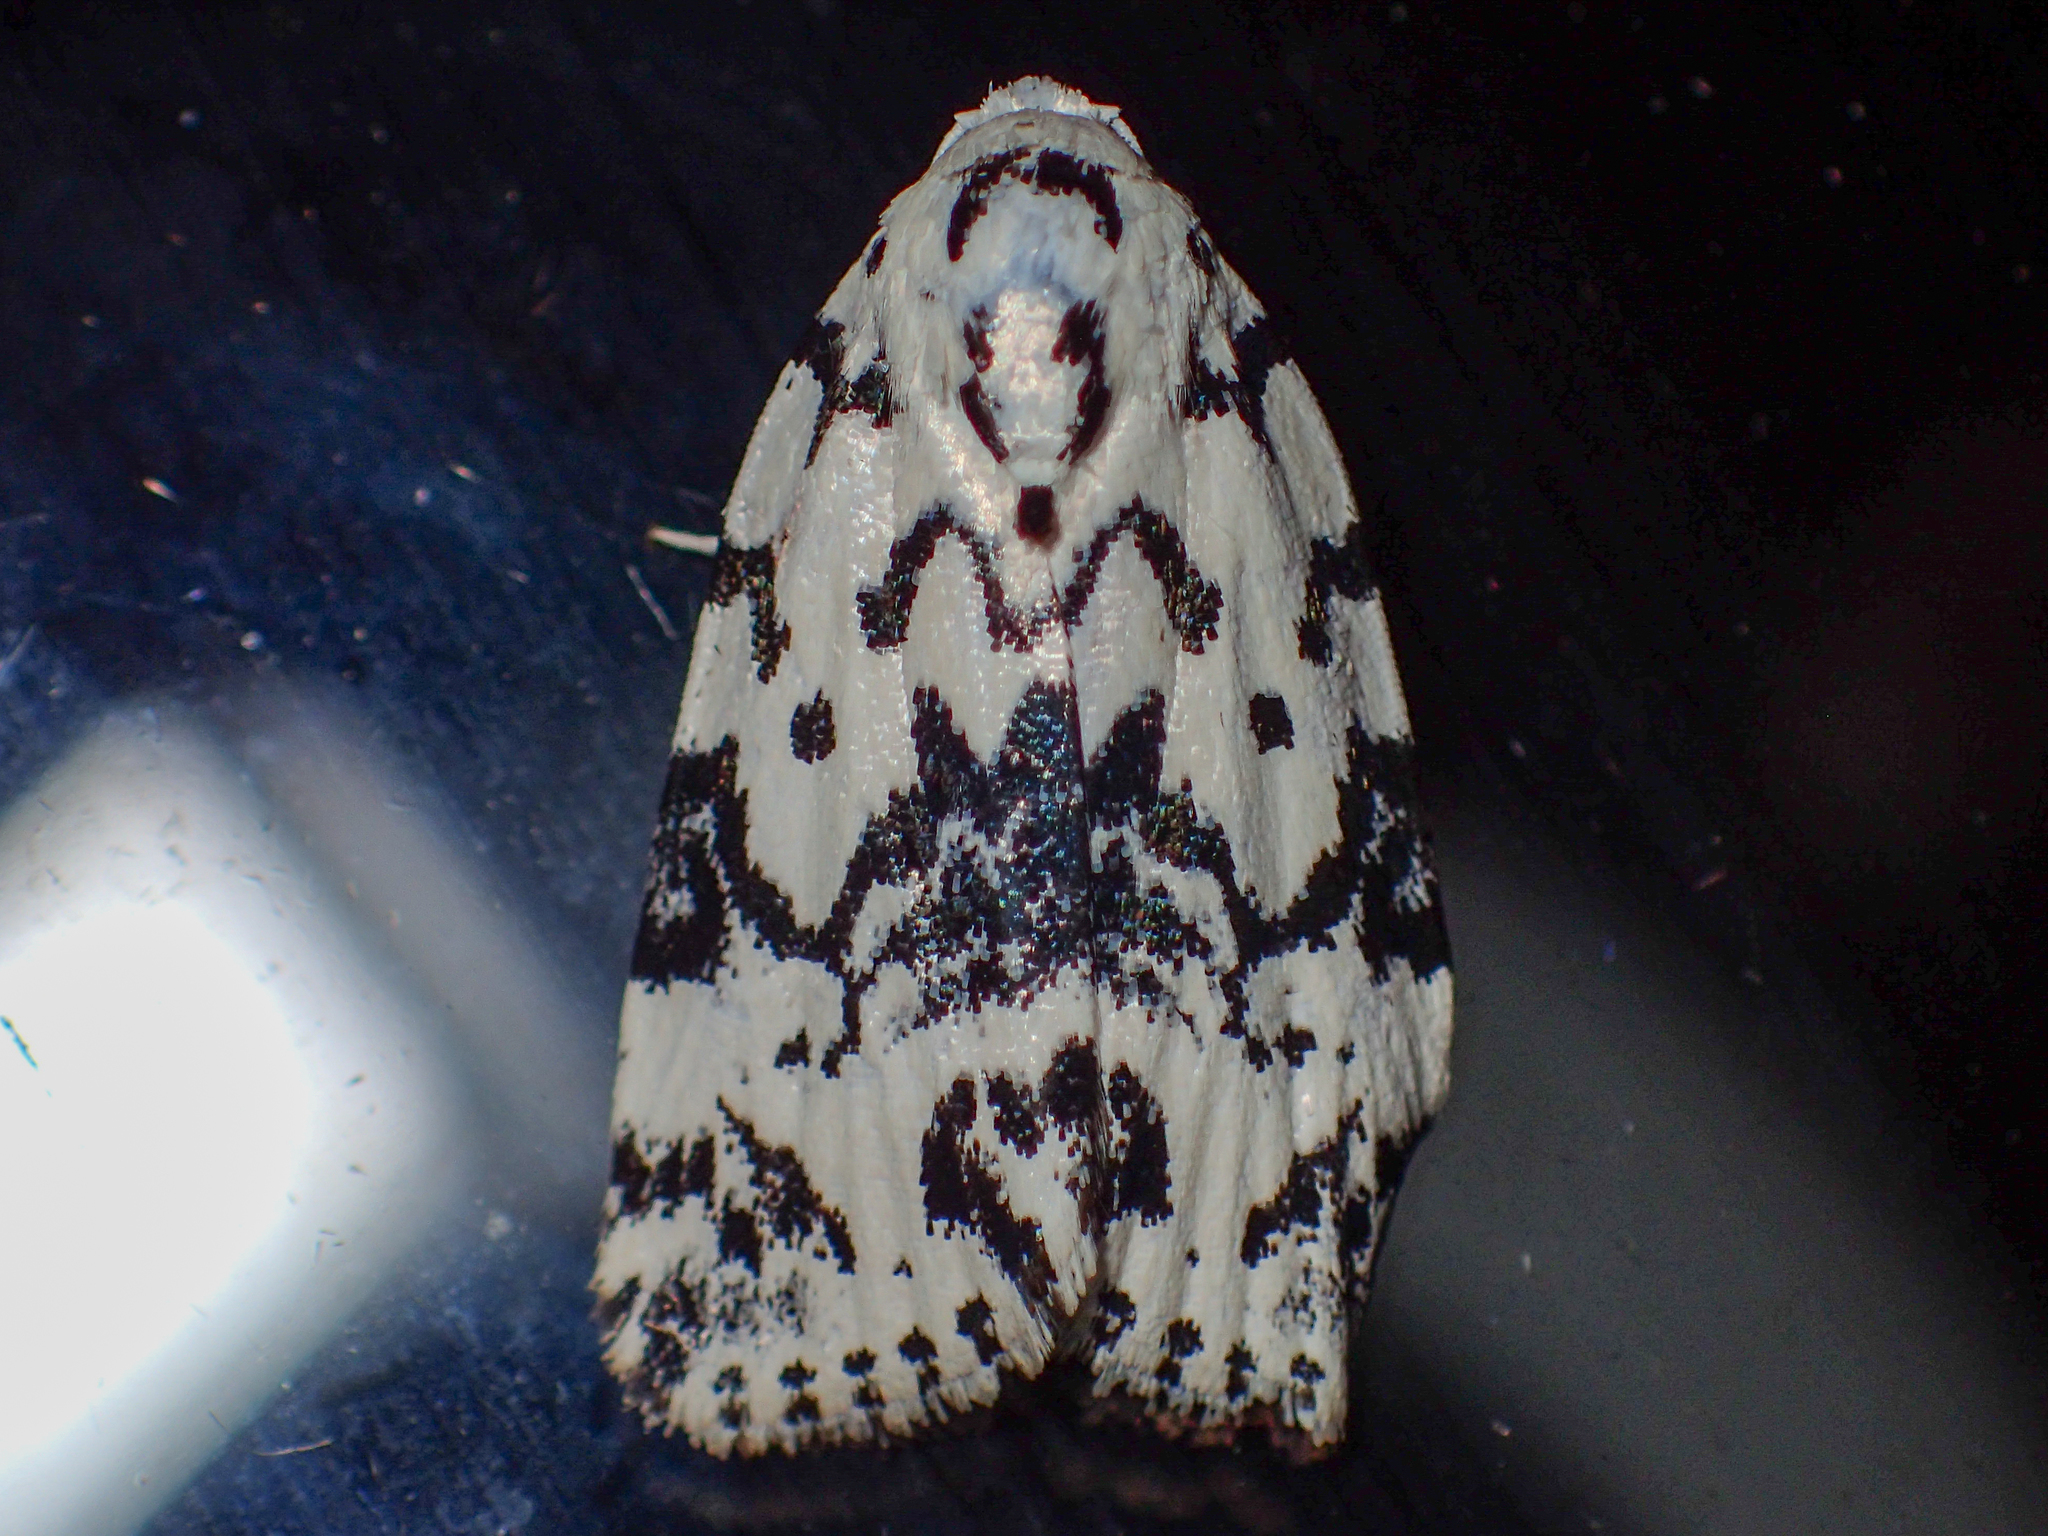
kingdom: Animalia
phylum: Arthropoda
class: Insecta
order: Lepidoptera
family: Noctuidae
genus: Polygrammate
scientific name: Polygrammate hebraeicum
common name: Hebrew moth
